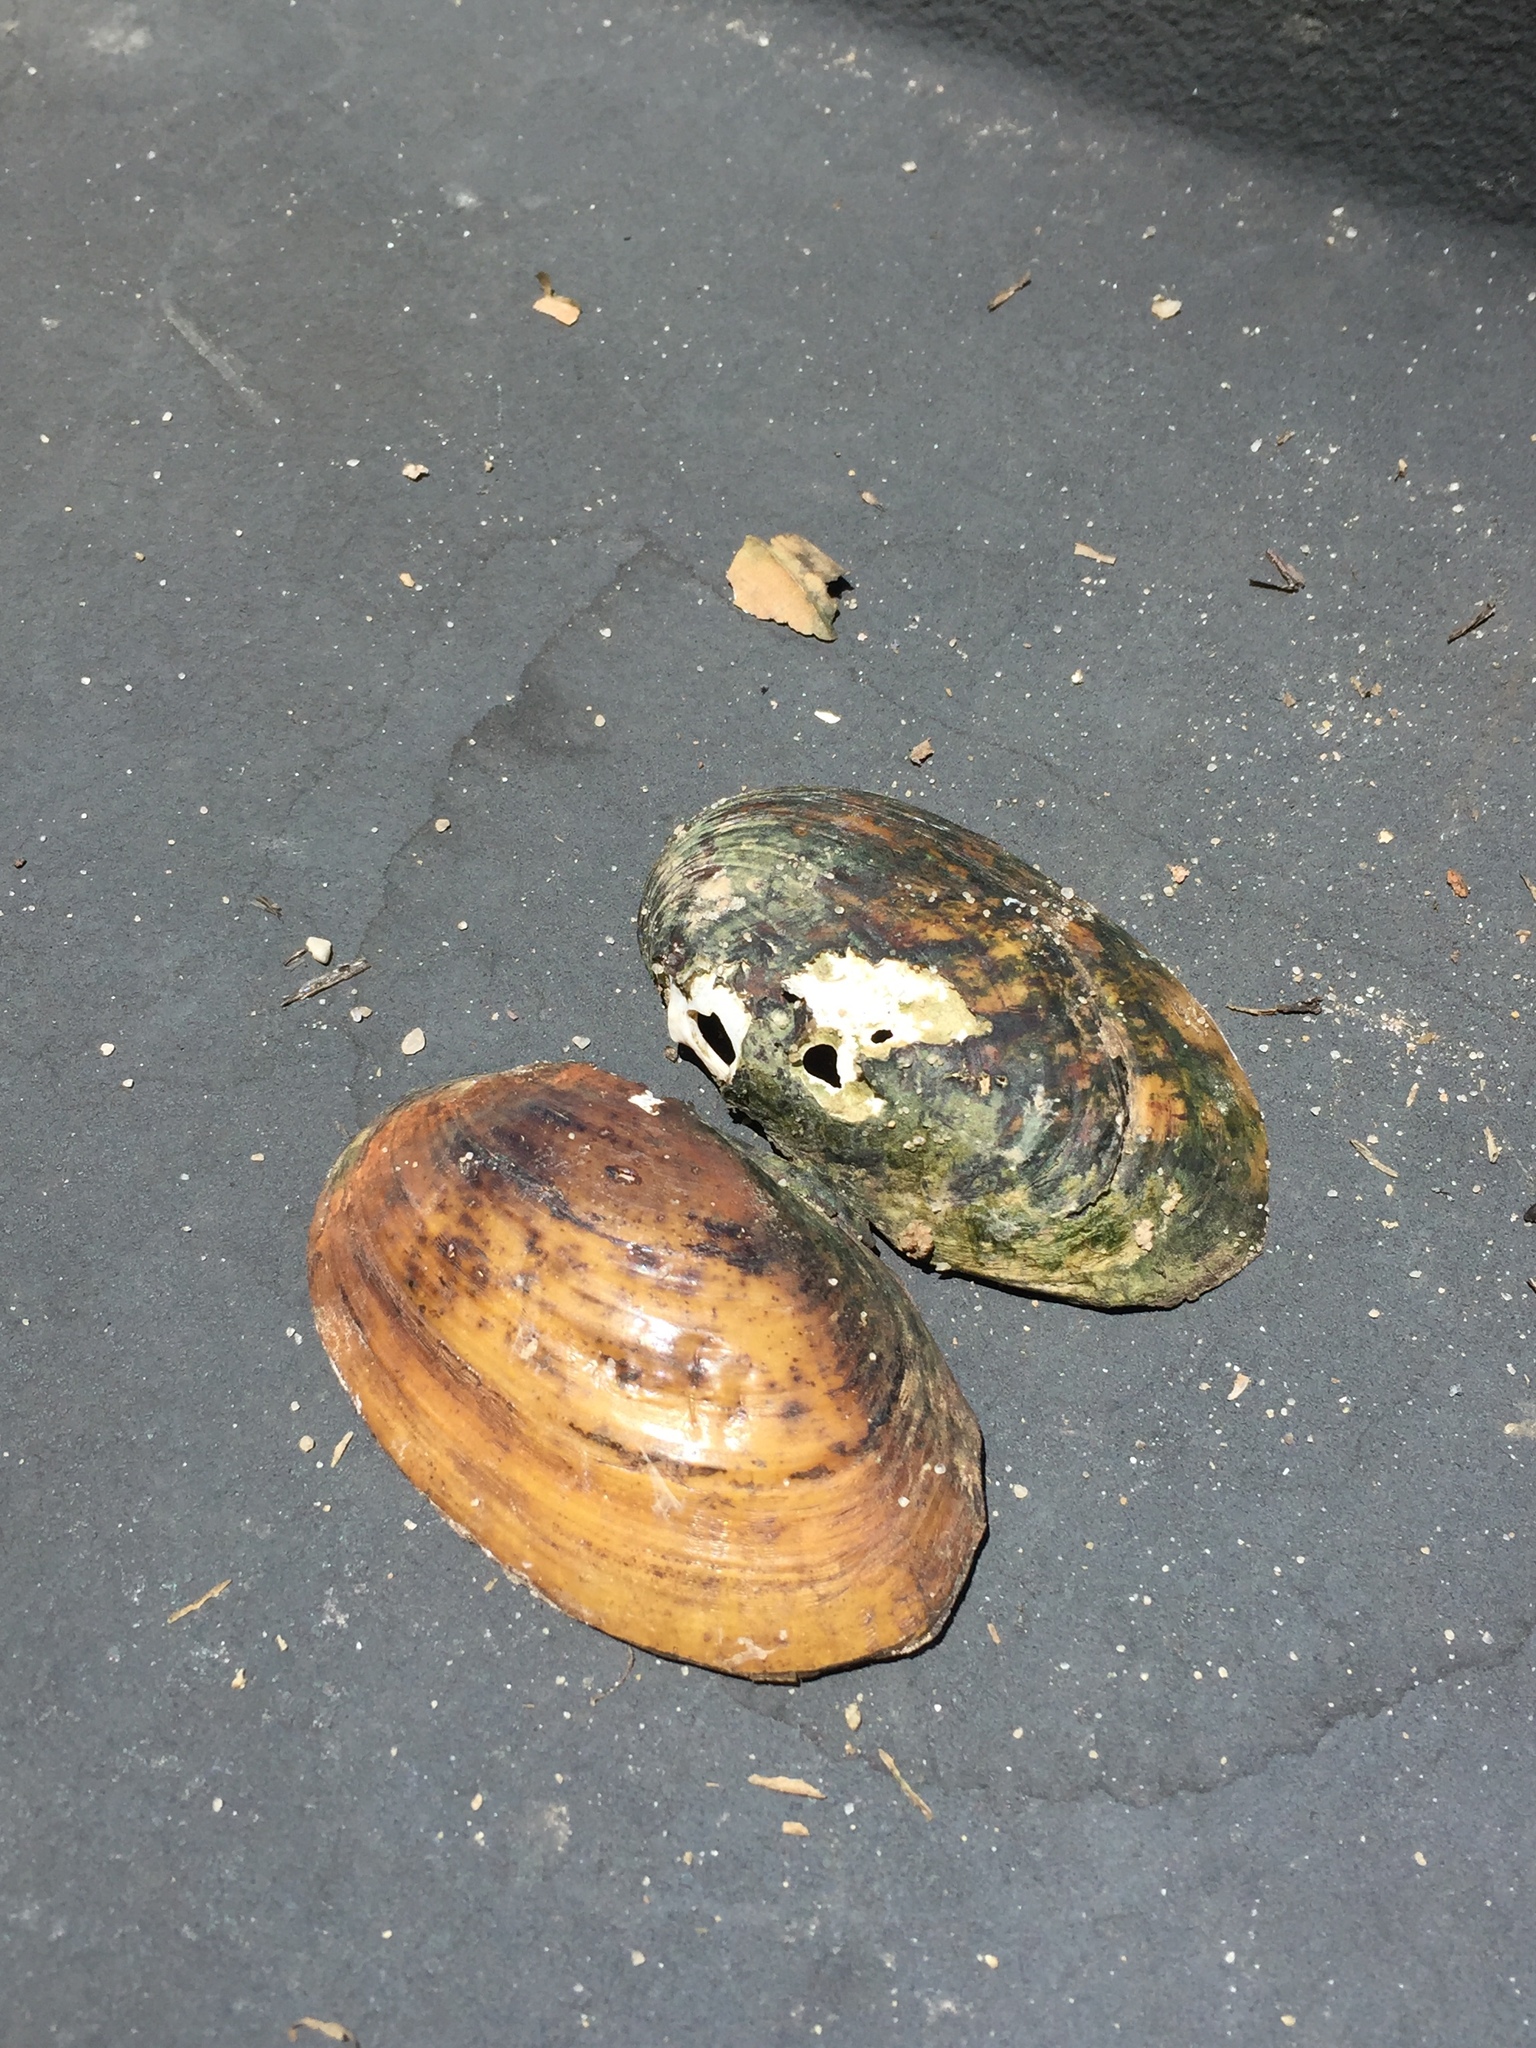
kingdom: Animalia
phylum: Mollusca
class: Bivalvia
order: Unionida
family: Unionidae
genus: Lampsilis
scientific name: Lampsilis straminea
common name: Rough fatmucket
